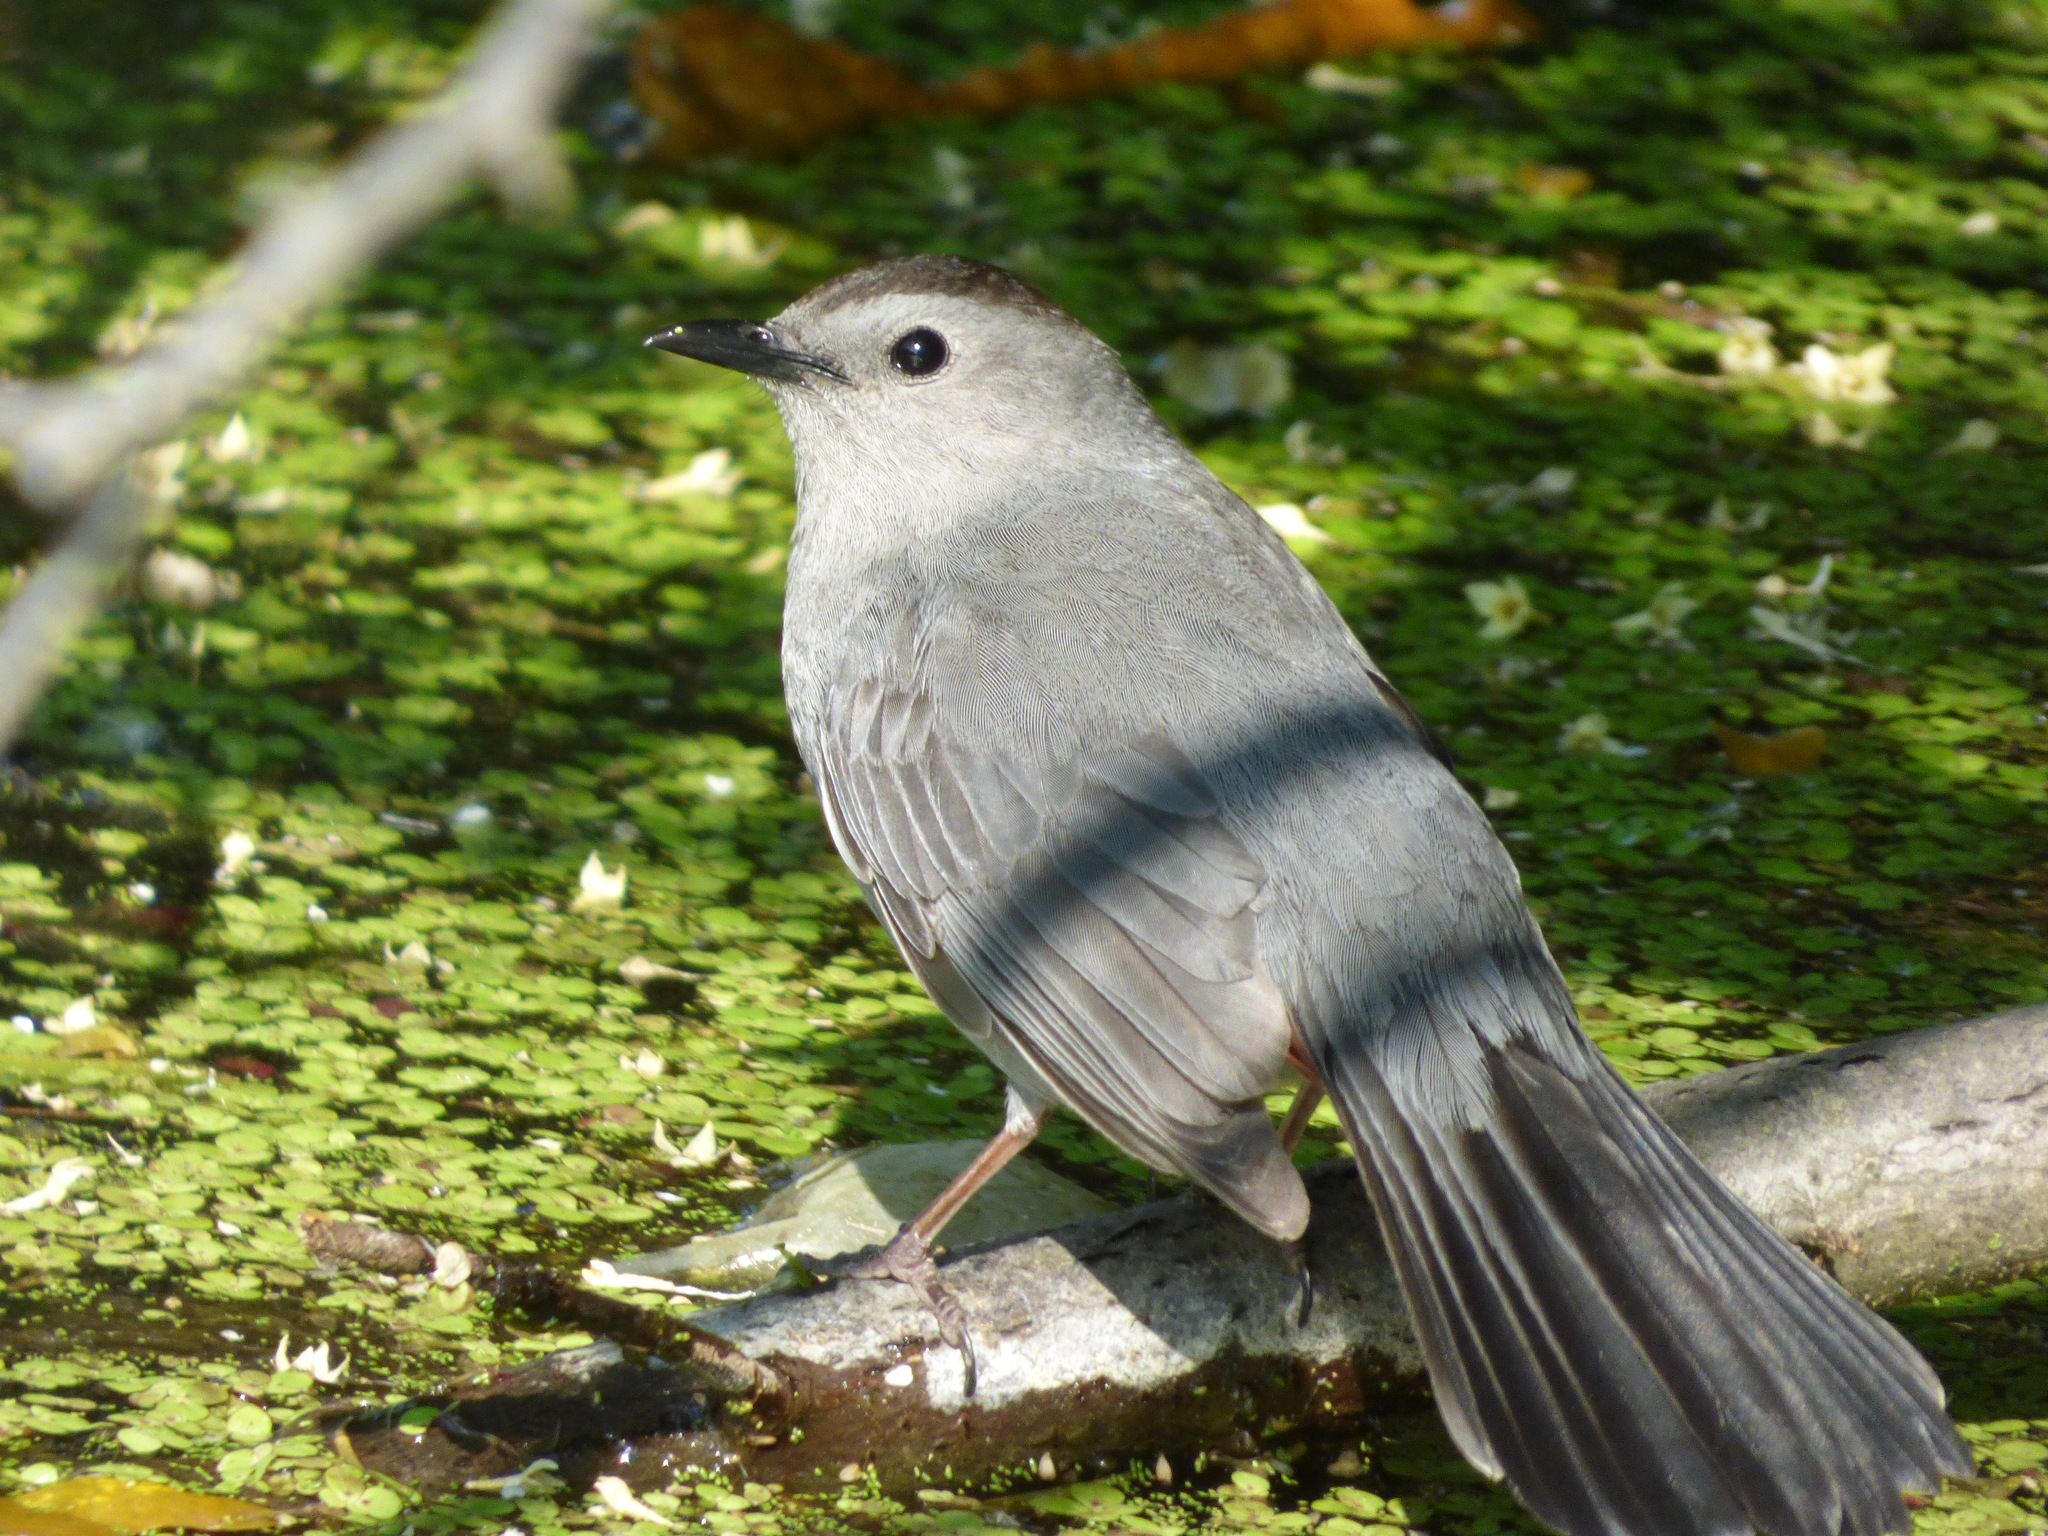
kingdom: Animalia
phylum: Chordata
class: Aves
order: Passeriformes
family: Mimidae
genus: Dumetella
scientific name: Dumetella carolinensis
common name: Gray catbird
